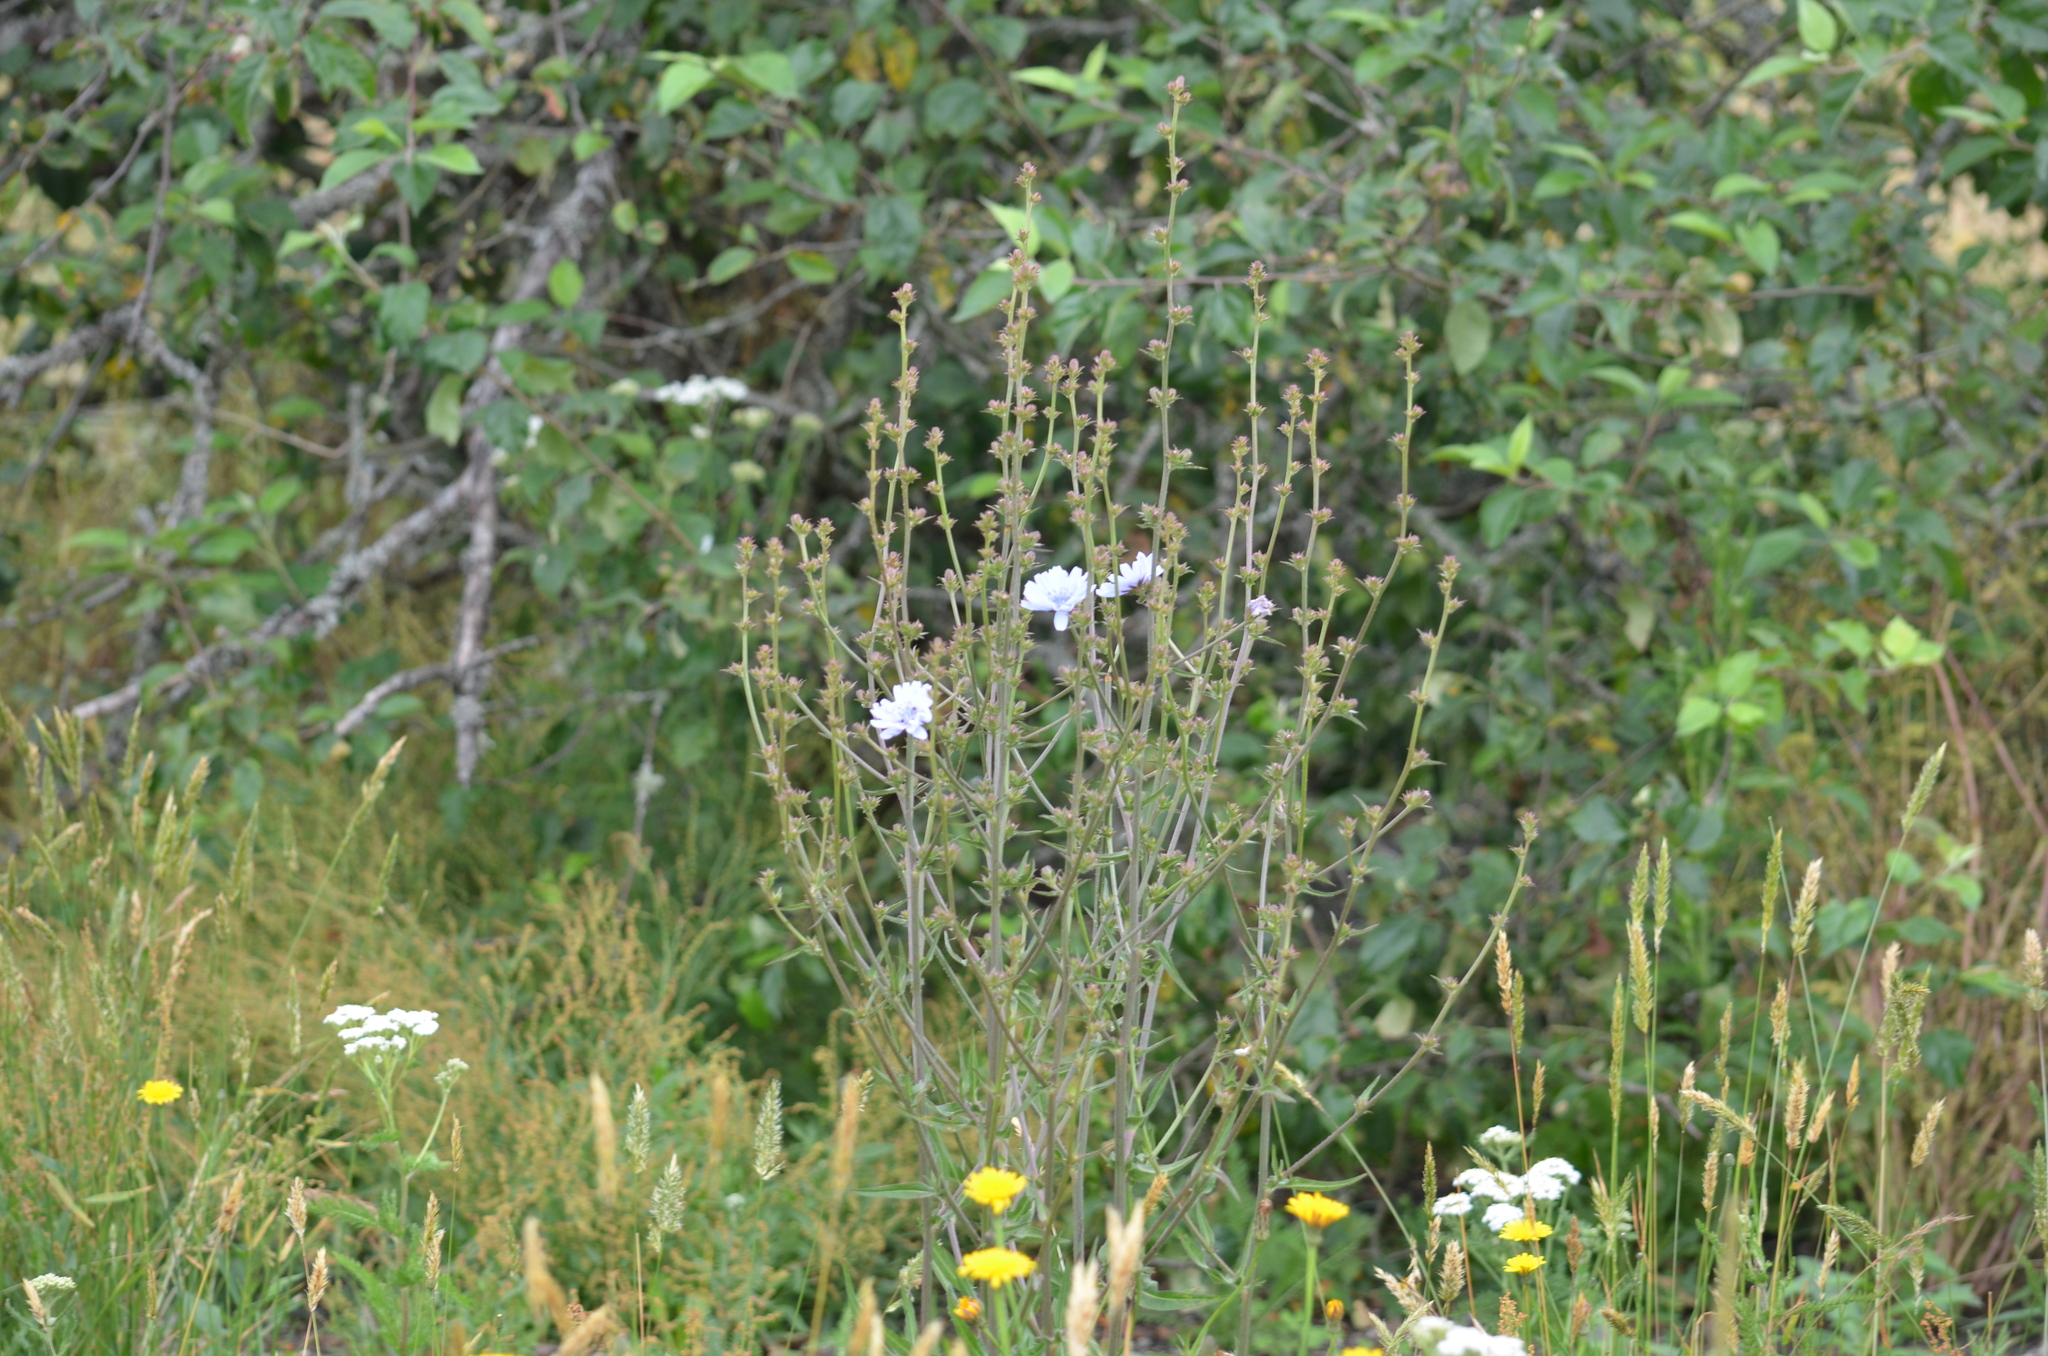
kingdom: Plantae
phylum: Tracheophyta
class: Magnoliopsida
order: Asterales
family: Asteraceae
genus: Cichorium
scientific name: Cichorium intybus
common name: Chicory
